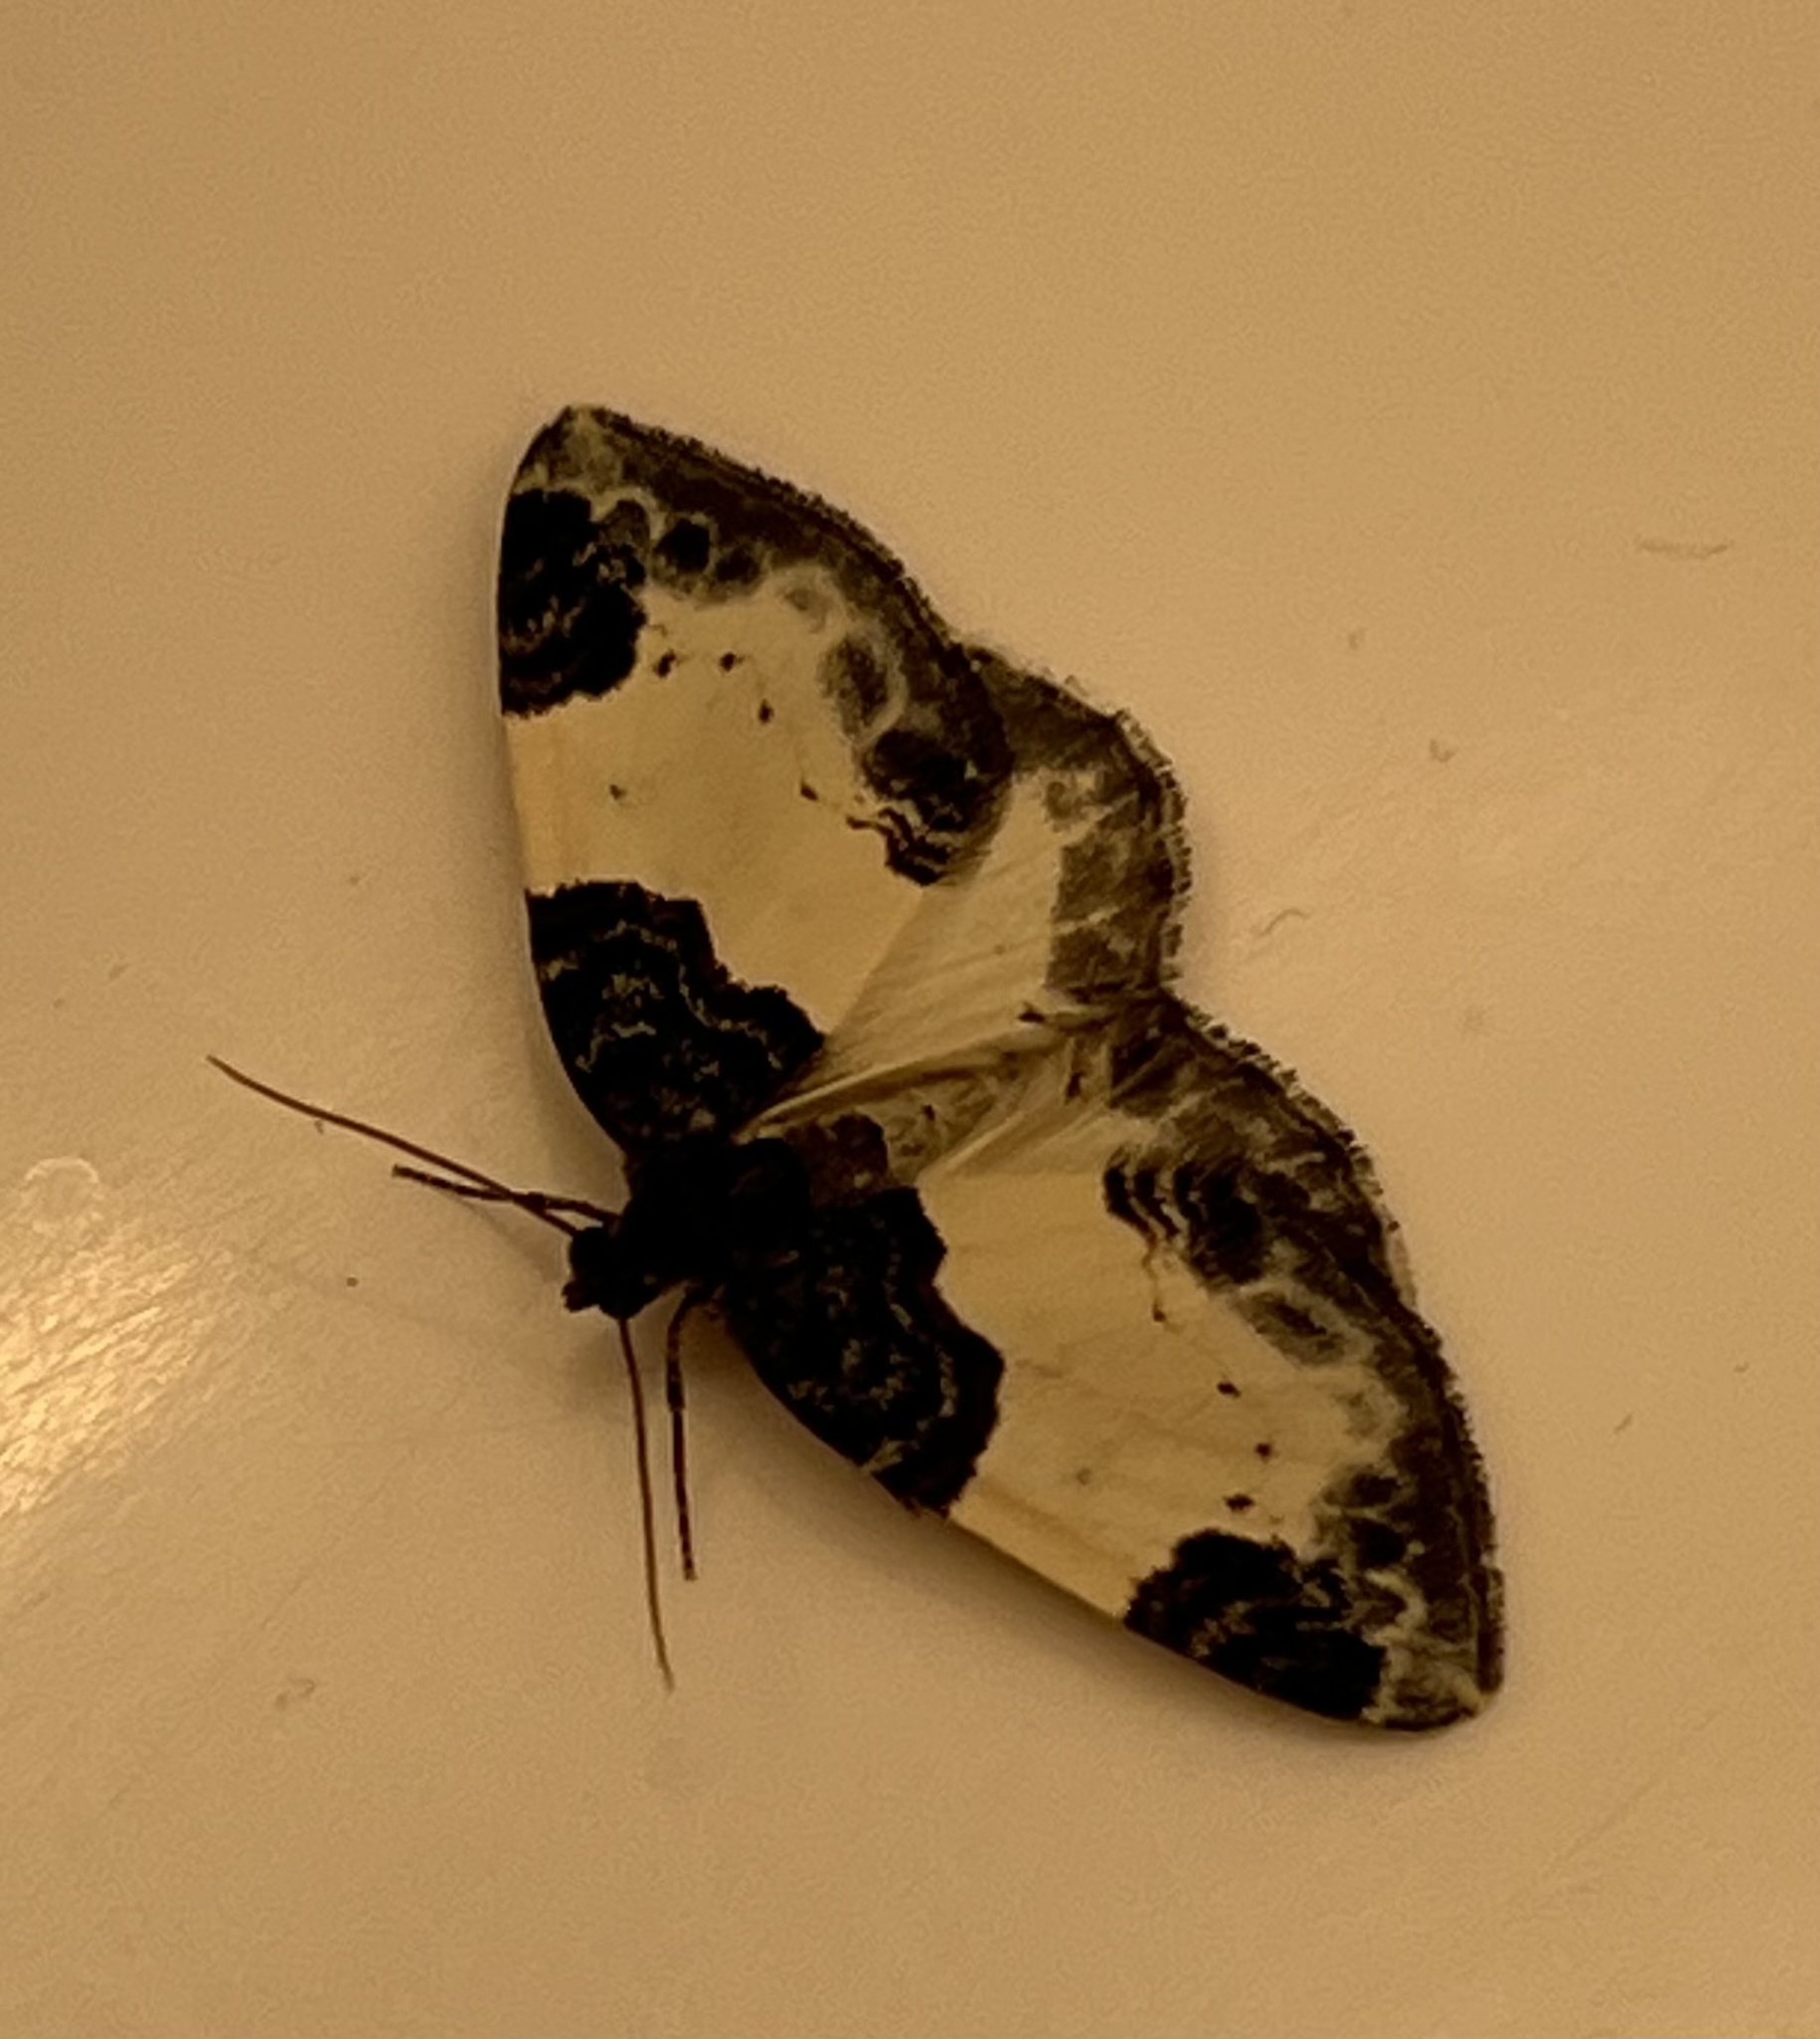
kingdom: Animalia
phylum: Arthropoda
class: Insecta
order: Lepidoptera
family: Geometridae
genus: Mesoleuca
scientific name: Mesoleuca albicillata
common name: Beautiful carpet
